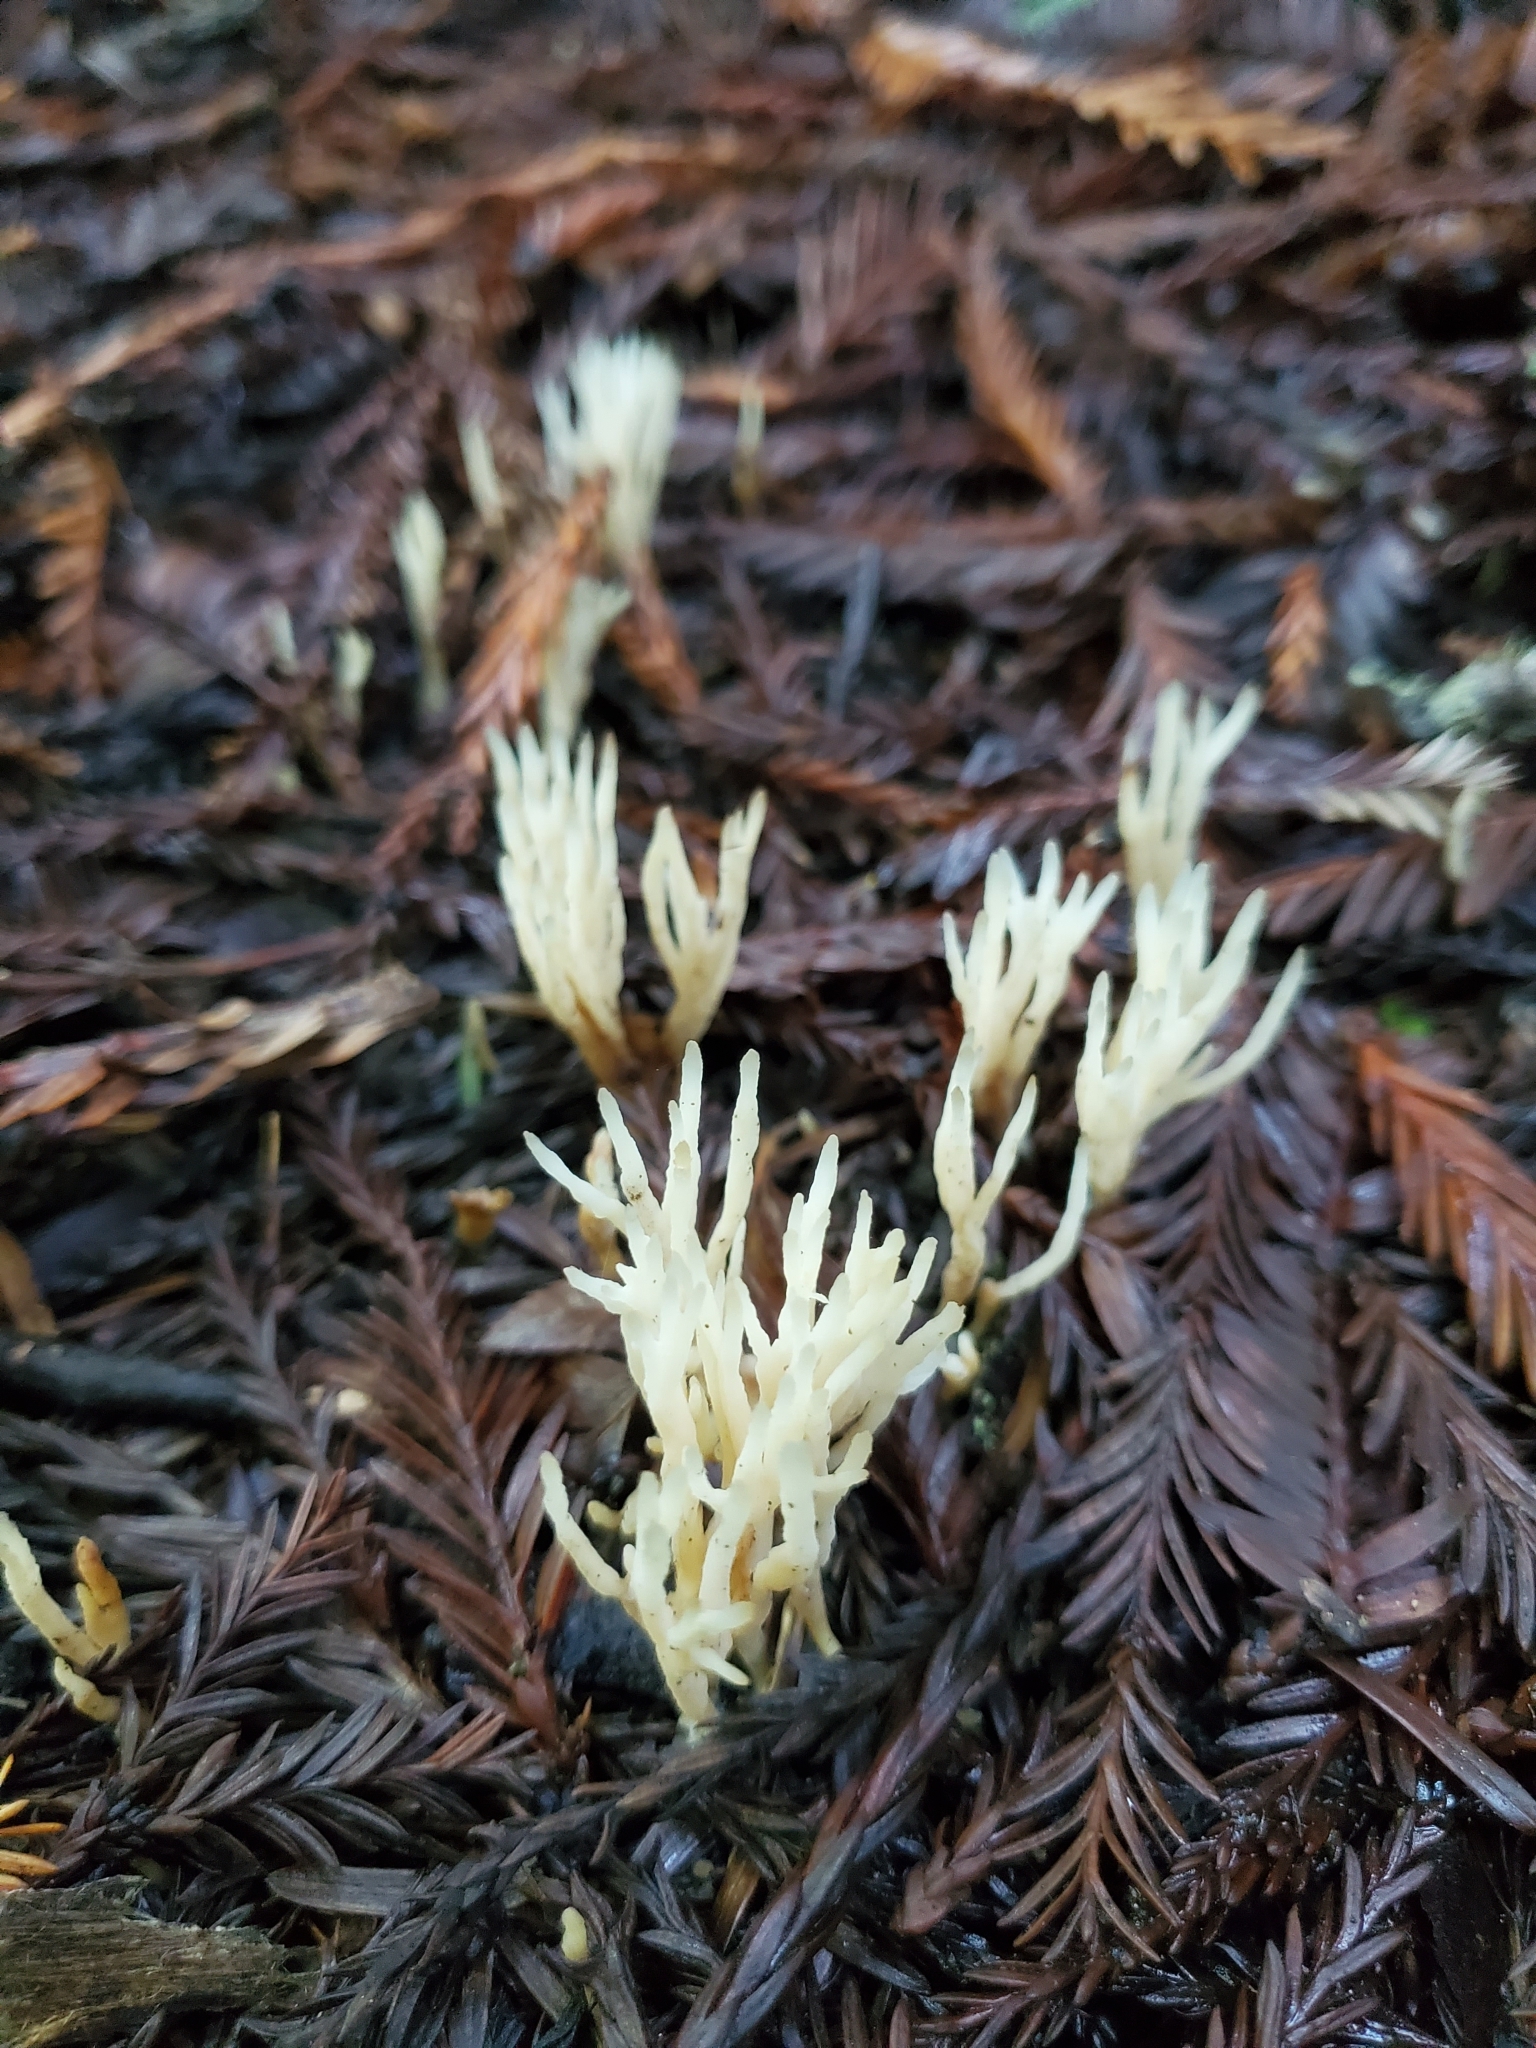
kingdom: Fungi
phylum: Basidiomycota
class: Agaricomycetes
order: Tremellodendropsidales
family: Tremellodendropsidaceae
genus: Tremellodendropsis
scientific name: Tremellodendropsis tuberosa
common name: Ashen coral
